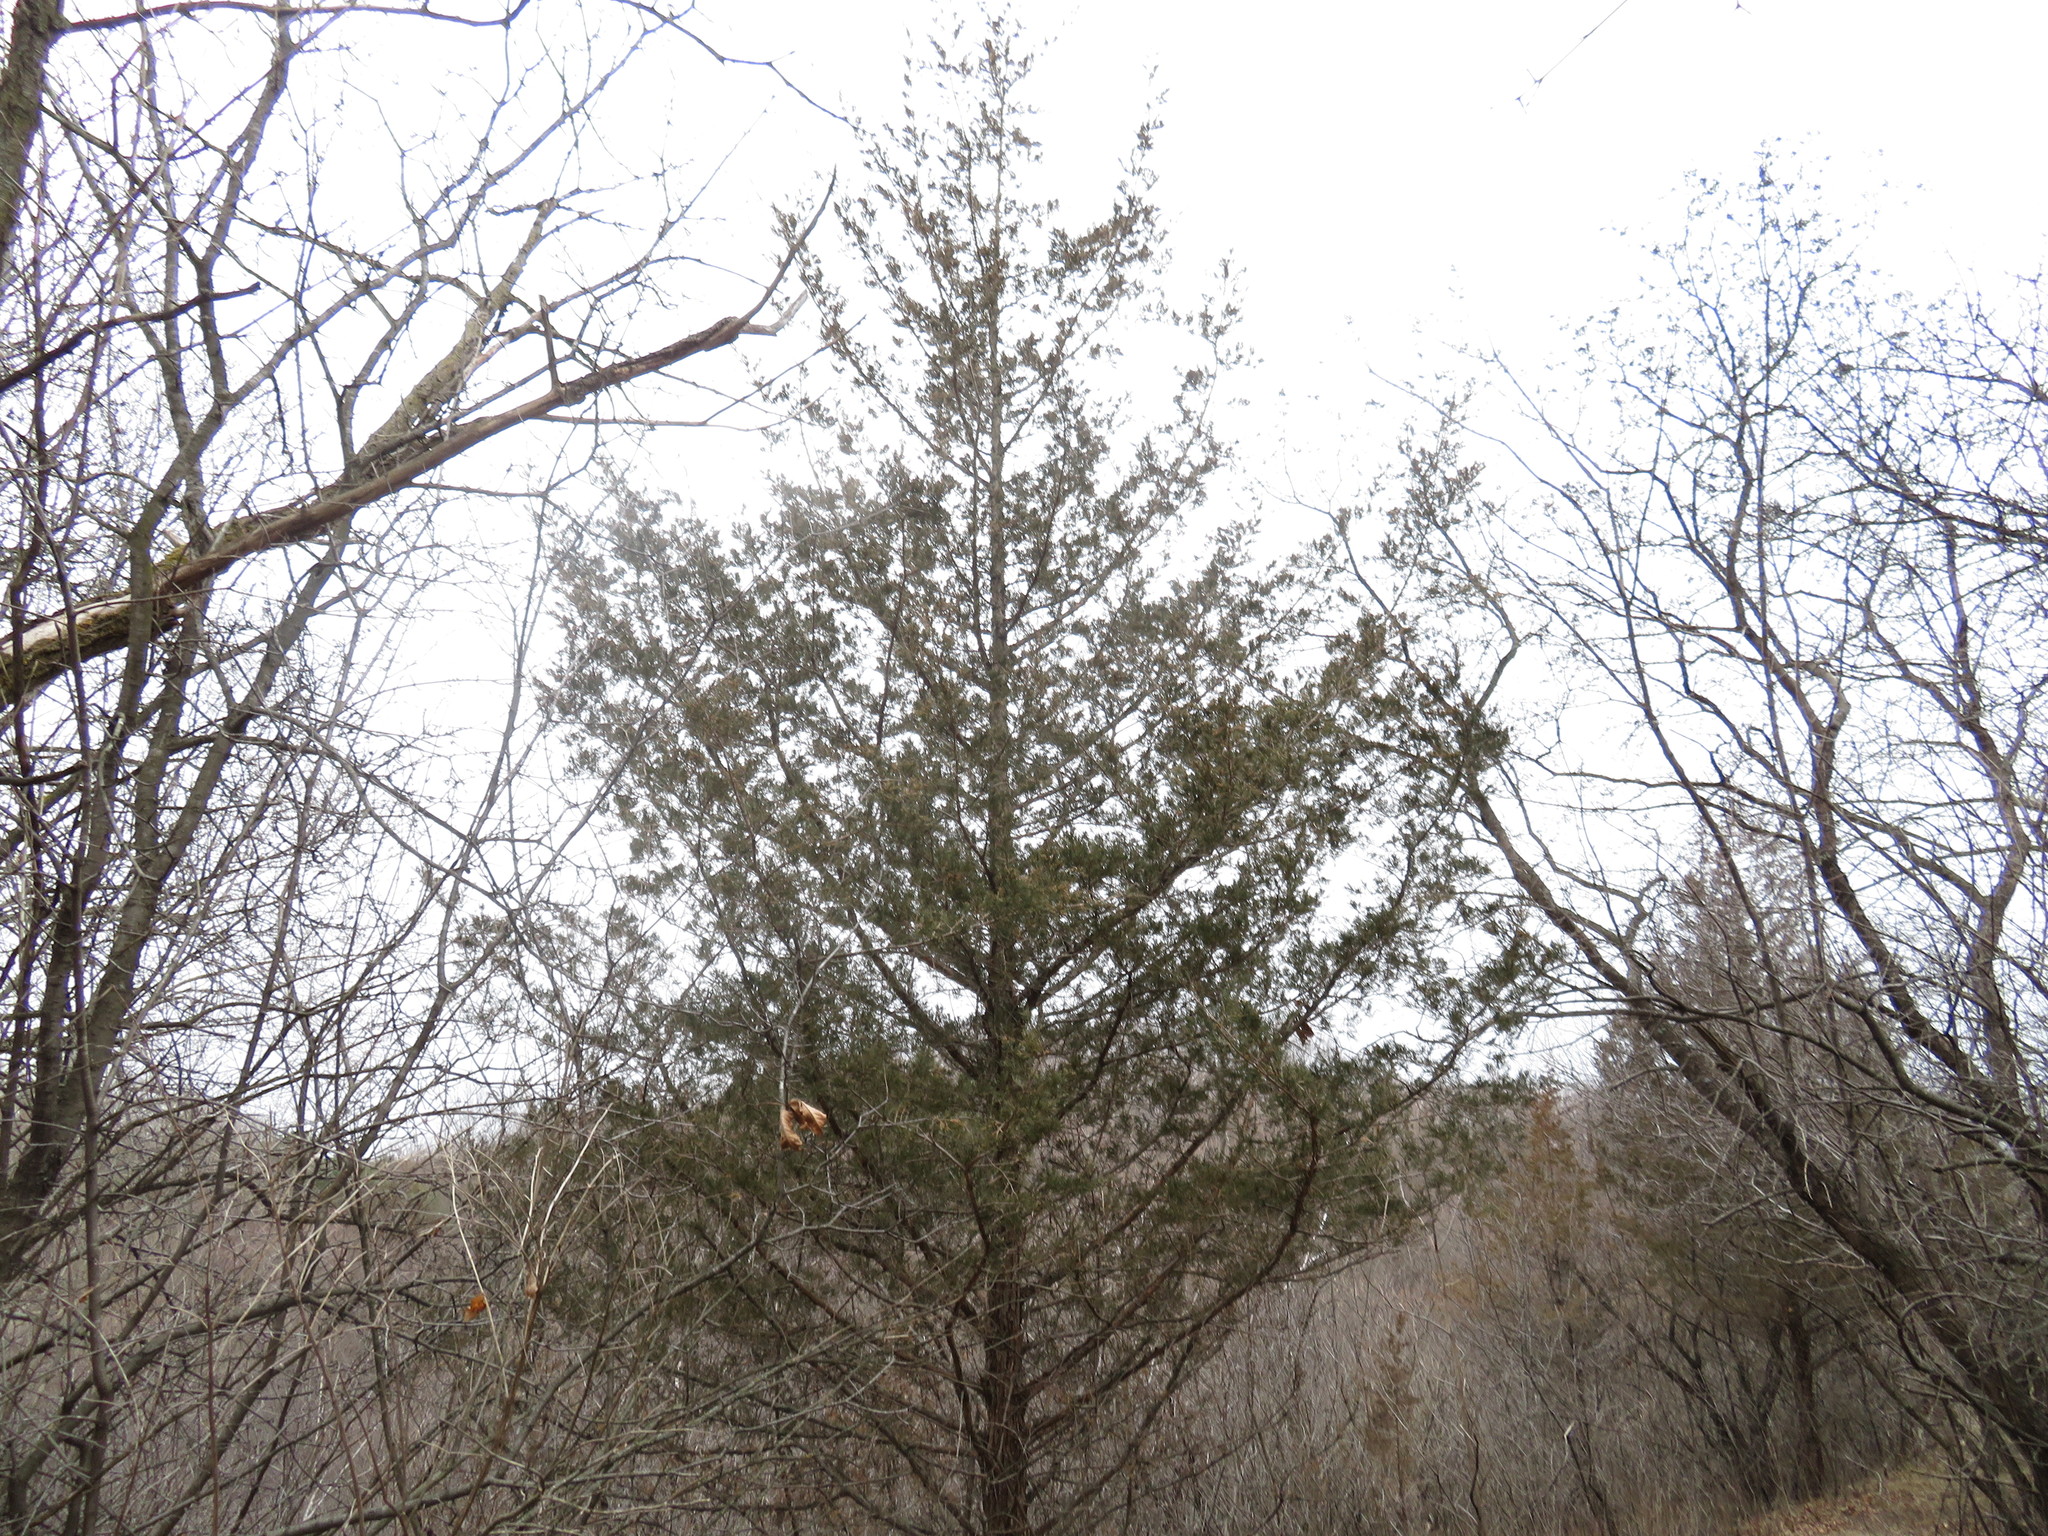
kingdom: Plantae
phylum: Tracheophyta
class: Pinopsida
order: Pinales
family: Cupressaceae
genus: Juniperus
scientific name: Juniperus virginiana
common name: Red juniper
